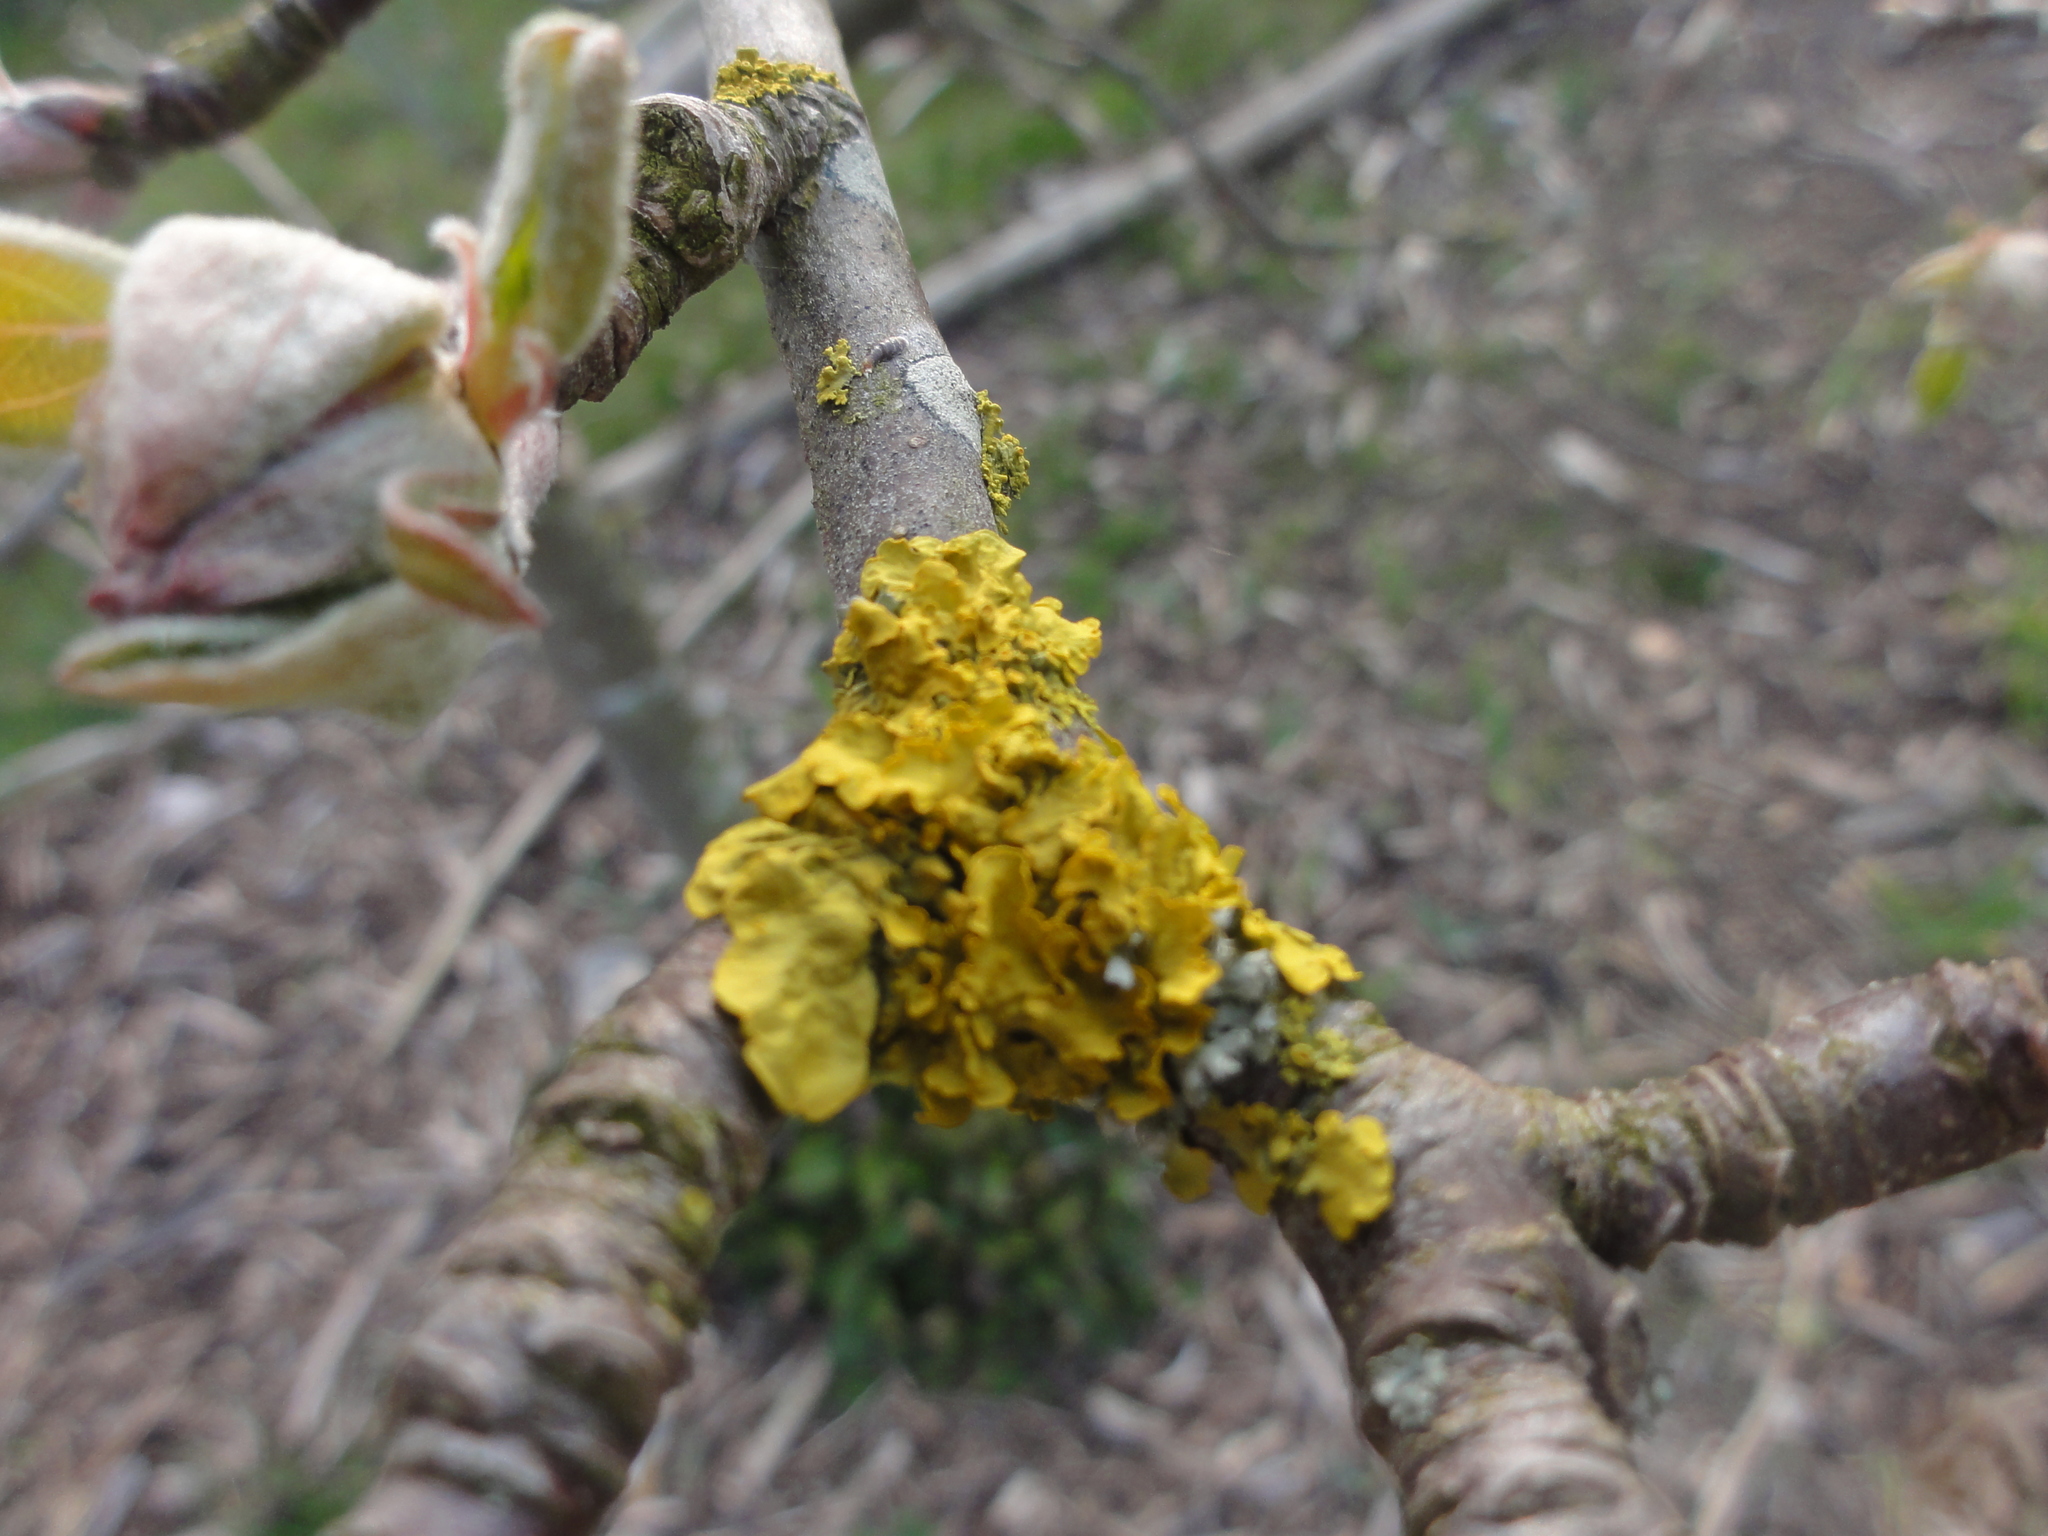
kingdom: Fungi
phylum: Ascomycota
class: Lecanoromycetes
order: Teloschistales
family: Teloschistaceae
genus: Xanthoria
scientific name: Xanthoria parietina
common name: Common orange lichen
